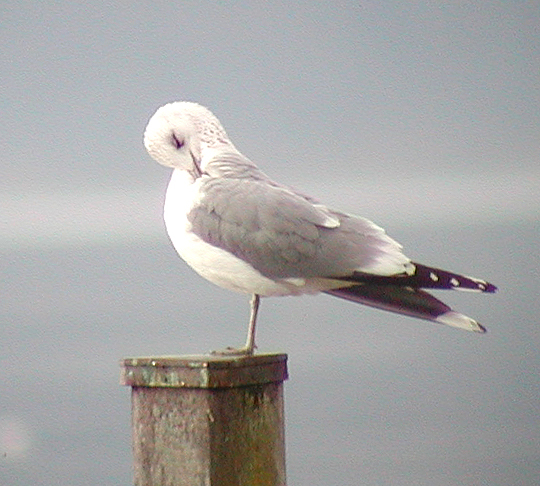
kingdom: Animalia
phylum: Chordata
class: Aves
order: Charadriiformes
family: Laridae
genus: Larus
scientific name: Larus canus
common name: Mew gull
